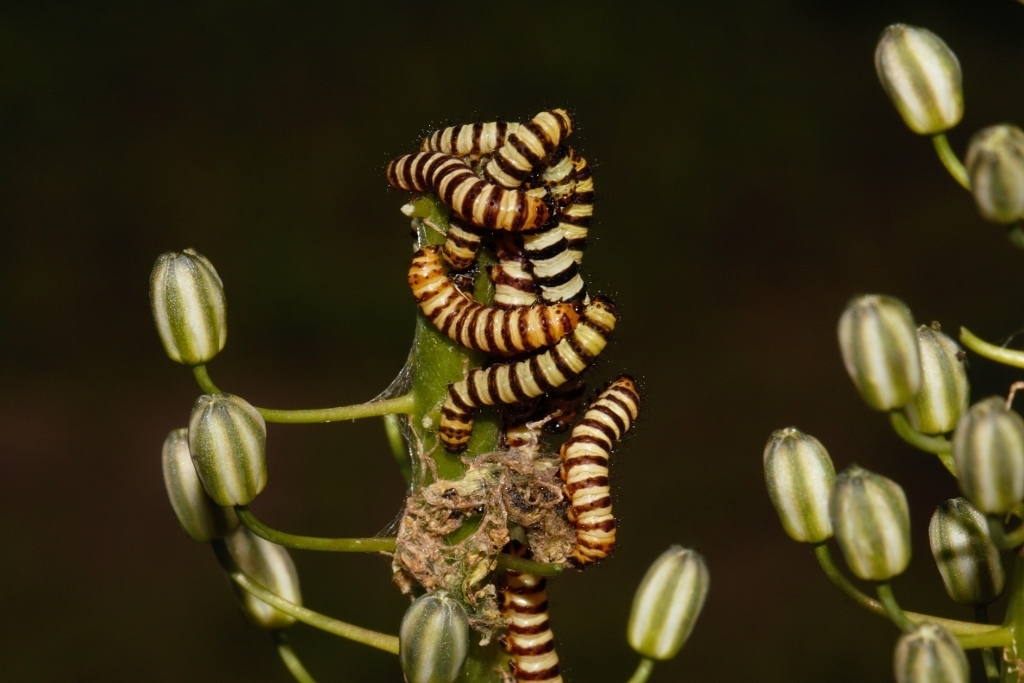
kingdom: Animalia
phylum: Arthropoda
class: Insecta
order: Lepidoptera
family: Noctuidae
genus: Diaphone
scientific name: Diaphone eumela
